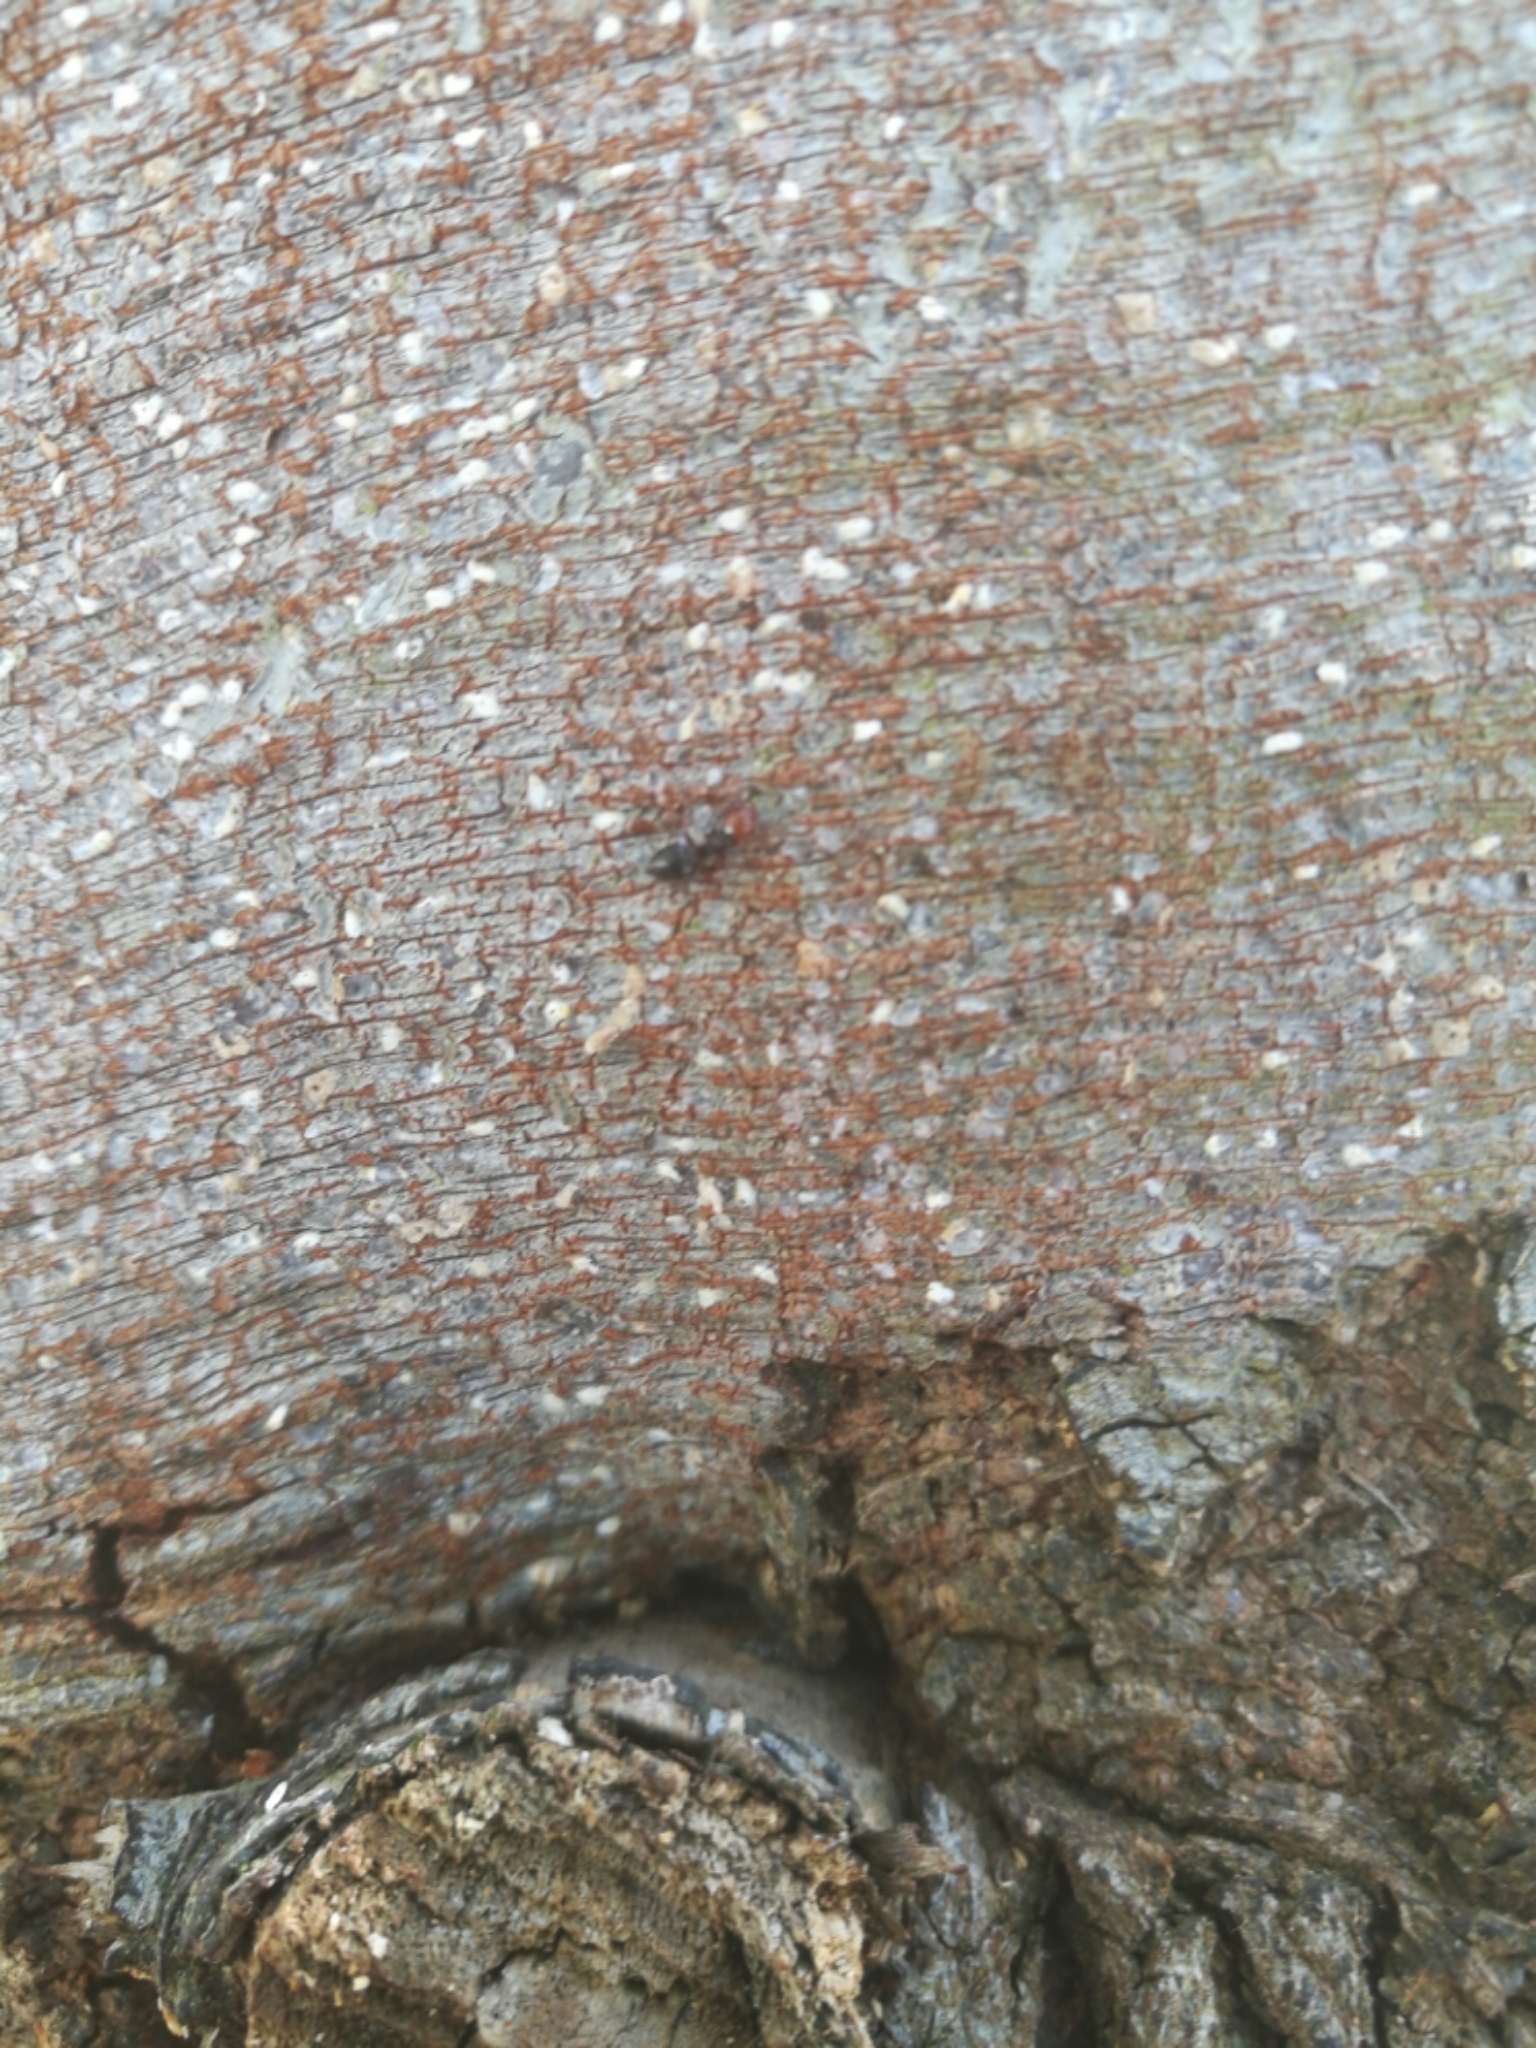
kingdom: Animalia
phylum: Arthropoda
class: Insecta
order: Hymenoptera
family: Formicidae
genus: Crematogaster
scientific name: Crematogaster scutellaris
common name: Fourmi du liège
